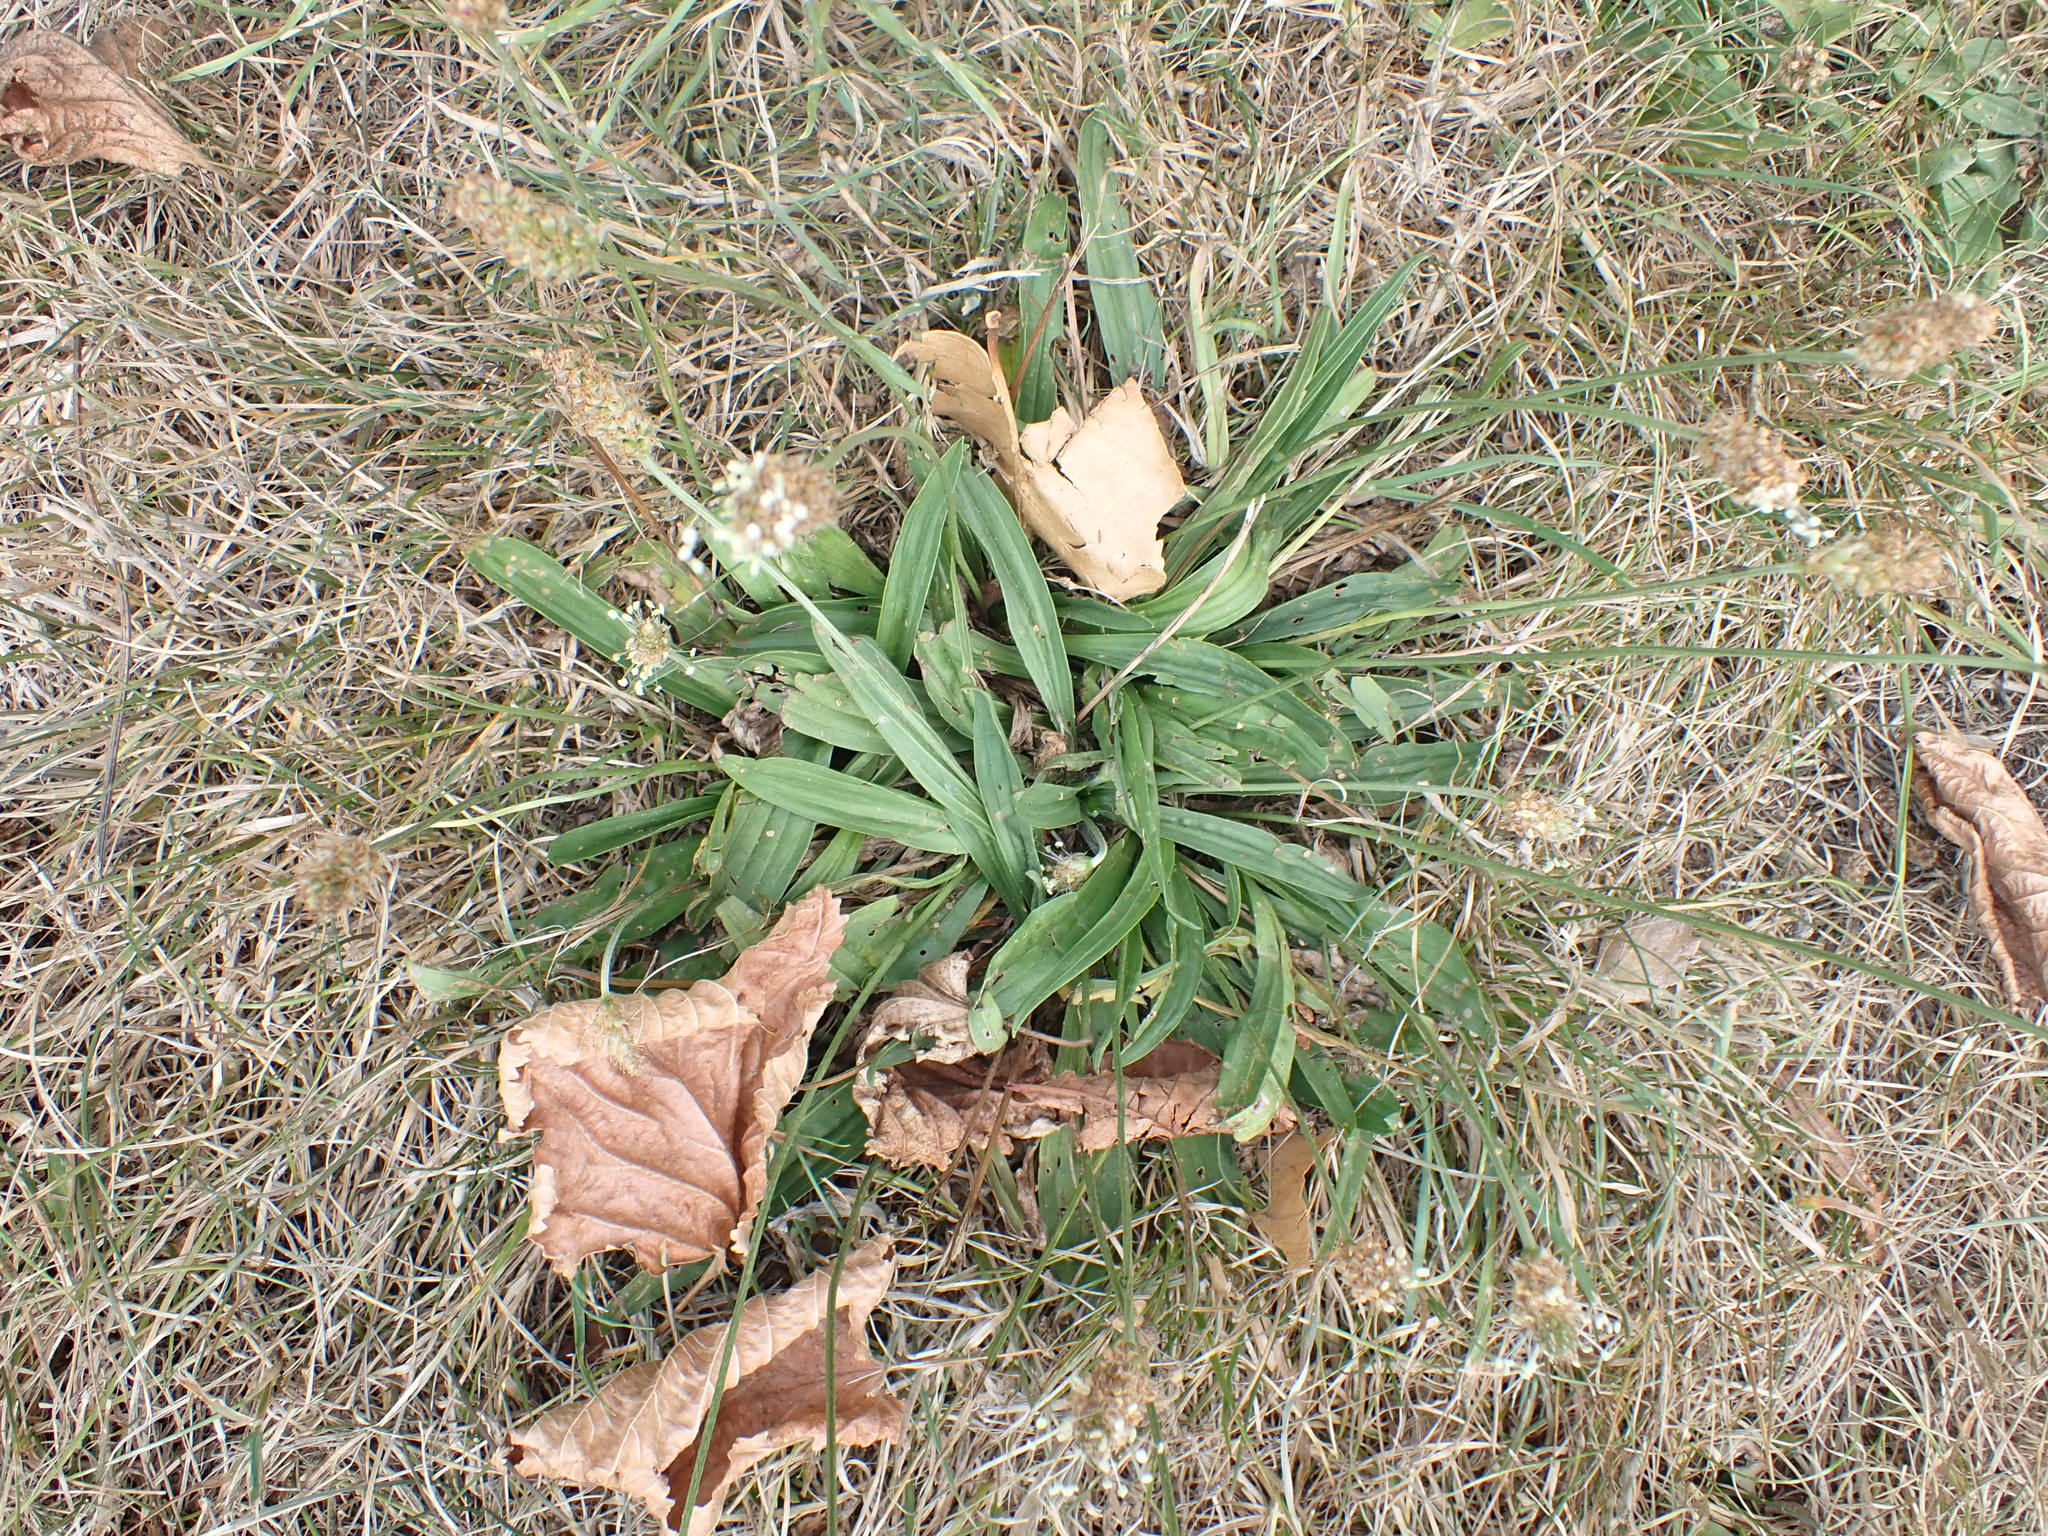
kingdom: Plantae
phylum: Tracheophyta
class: Magnoliopsida
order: Lamiales
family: Plantaginaceae
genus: Plantago
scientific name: Plantago lanceolata
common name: Ribwort plantain
